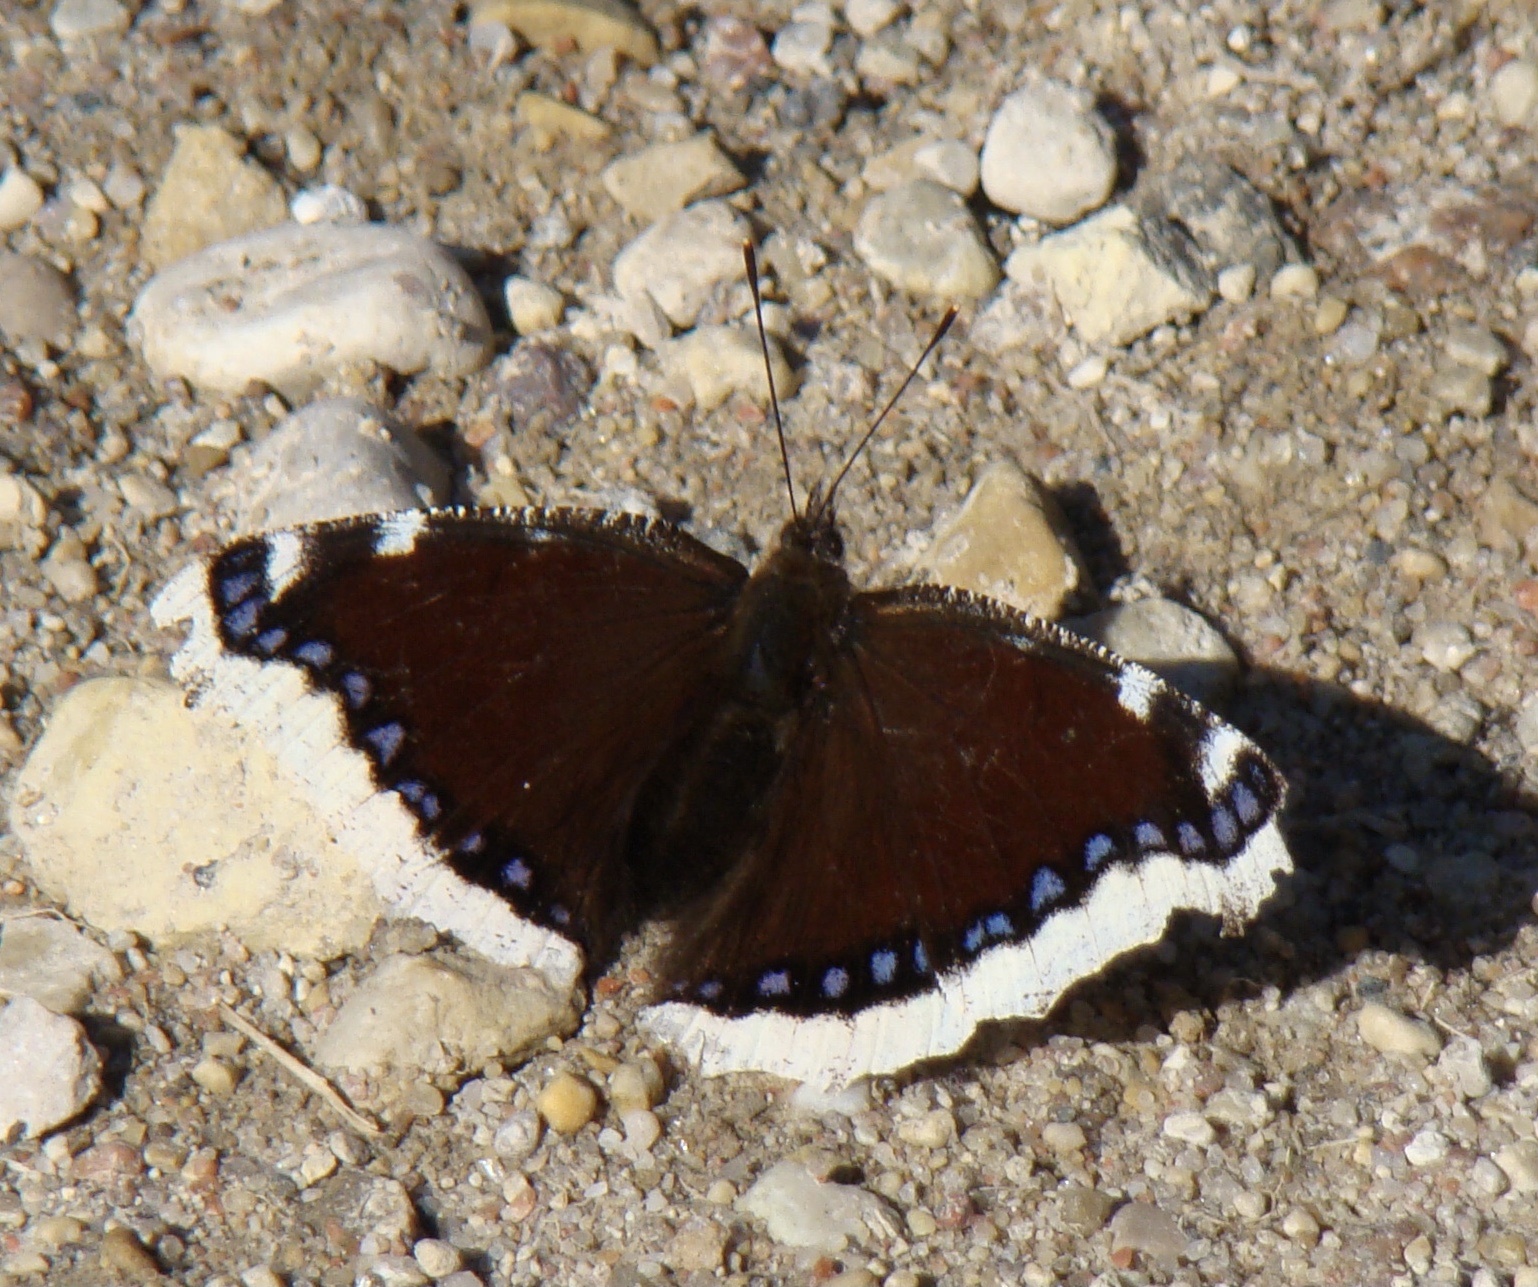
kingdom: Animalia
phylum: Arthropoda
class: Insecta
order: Lepidoptera
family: Nymphalidae
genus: Nymphalis
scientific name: Nymphalis antiopa
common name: Camberwell beauty
